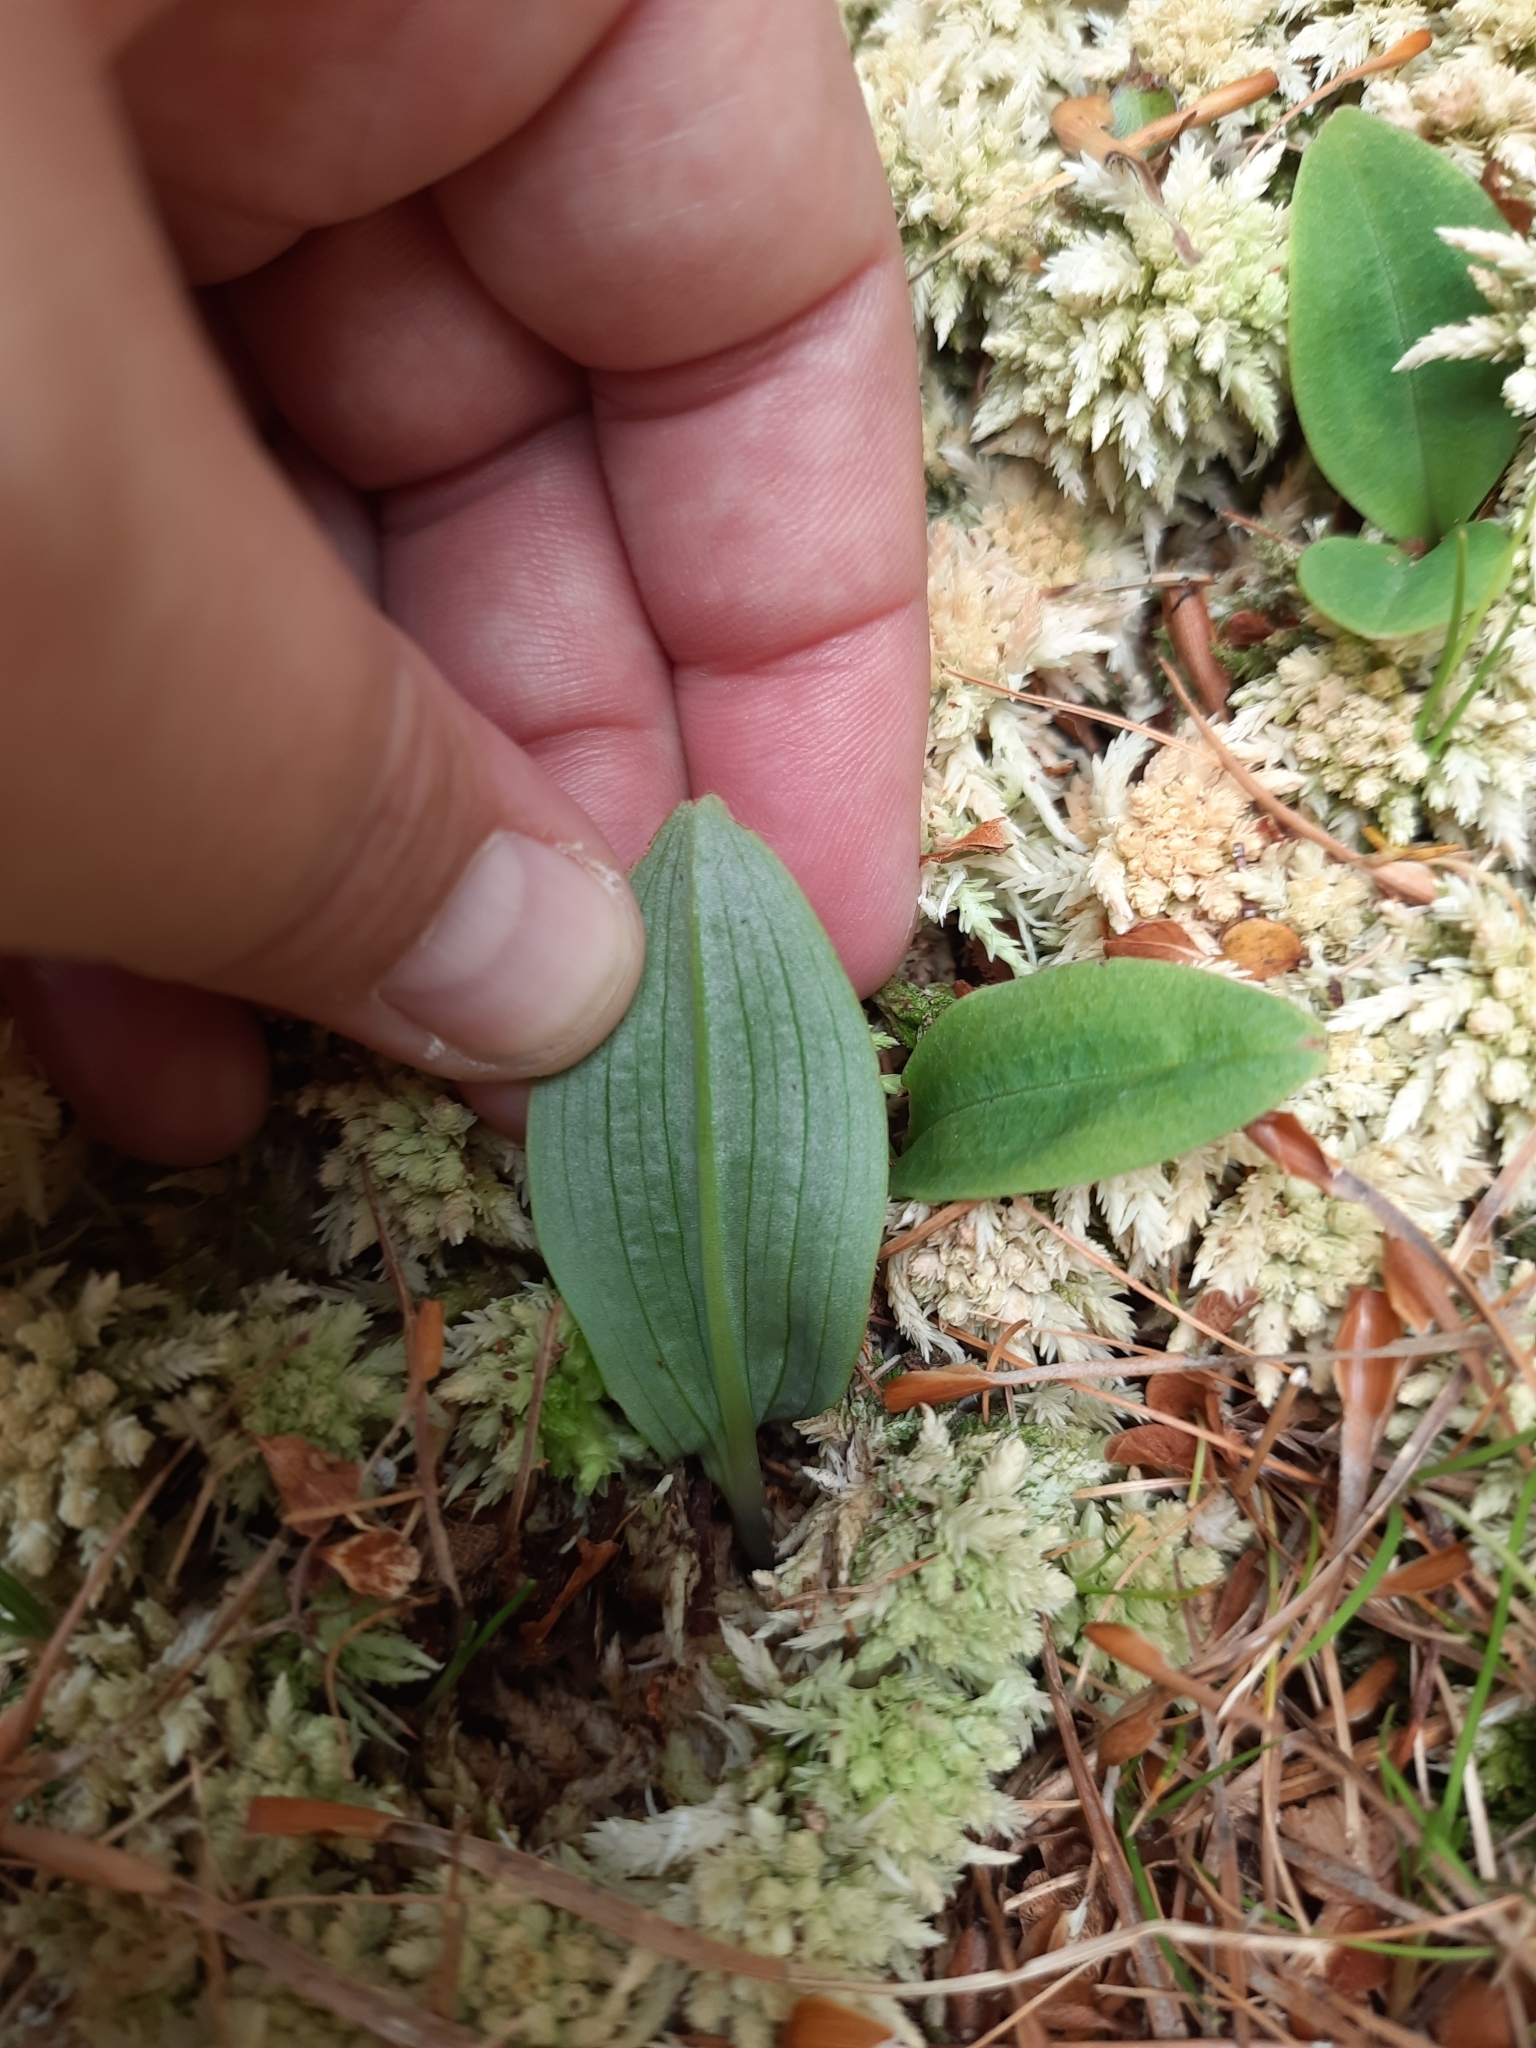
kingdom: Plantae
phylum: Tracheophyta
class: Liliopsida
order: Asparagales
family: Orchidaceae
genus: Chiloglottis
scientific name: Chiloglottis cornuta
